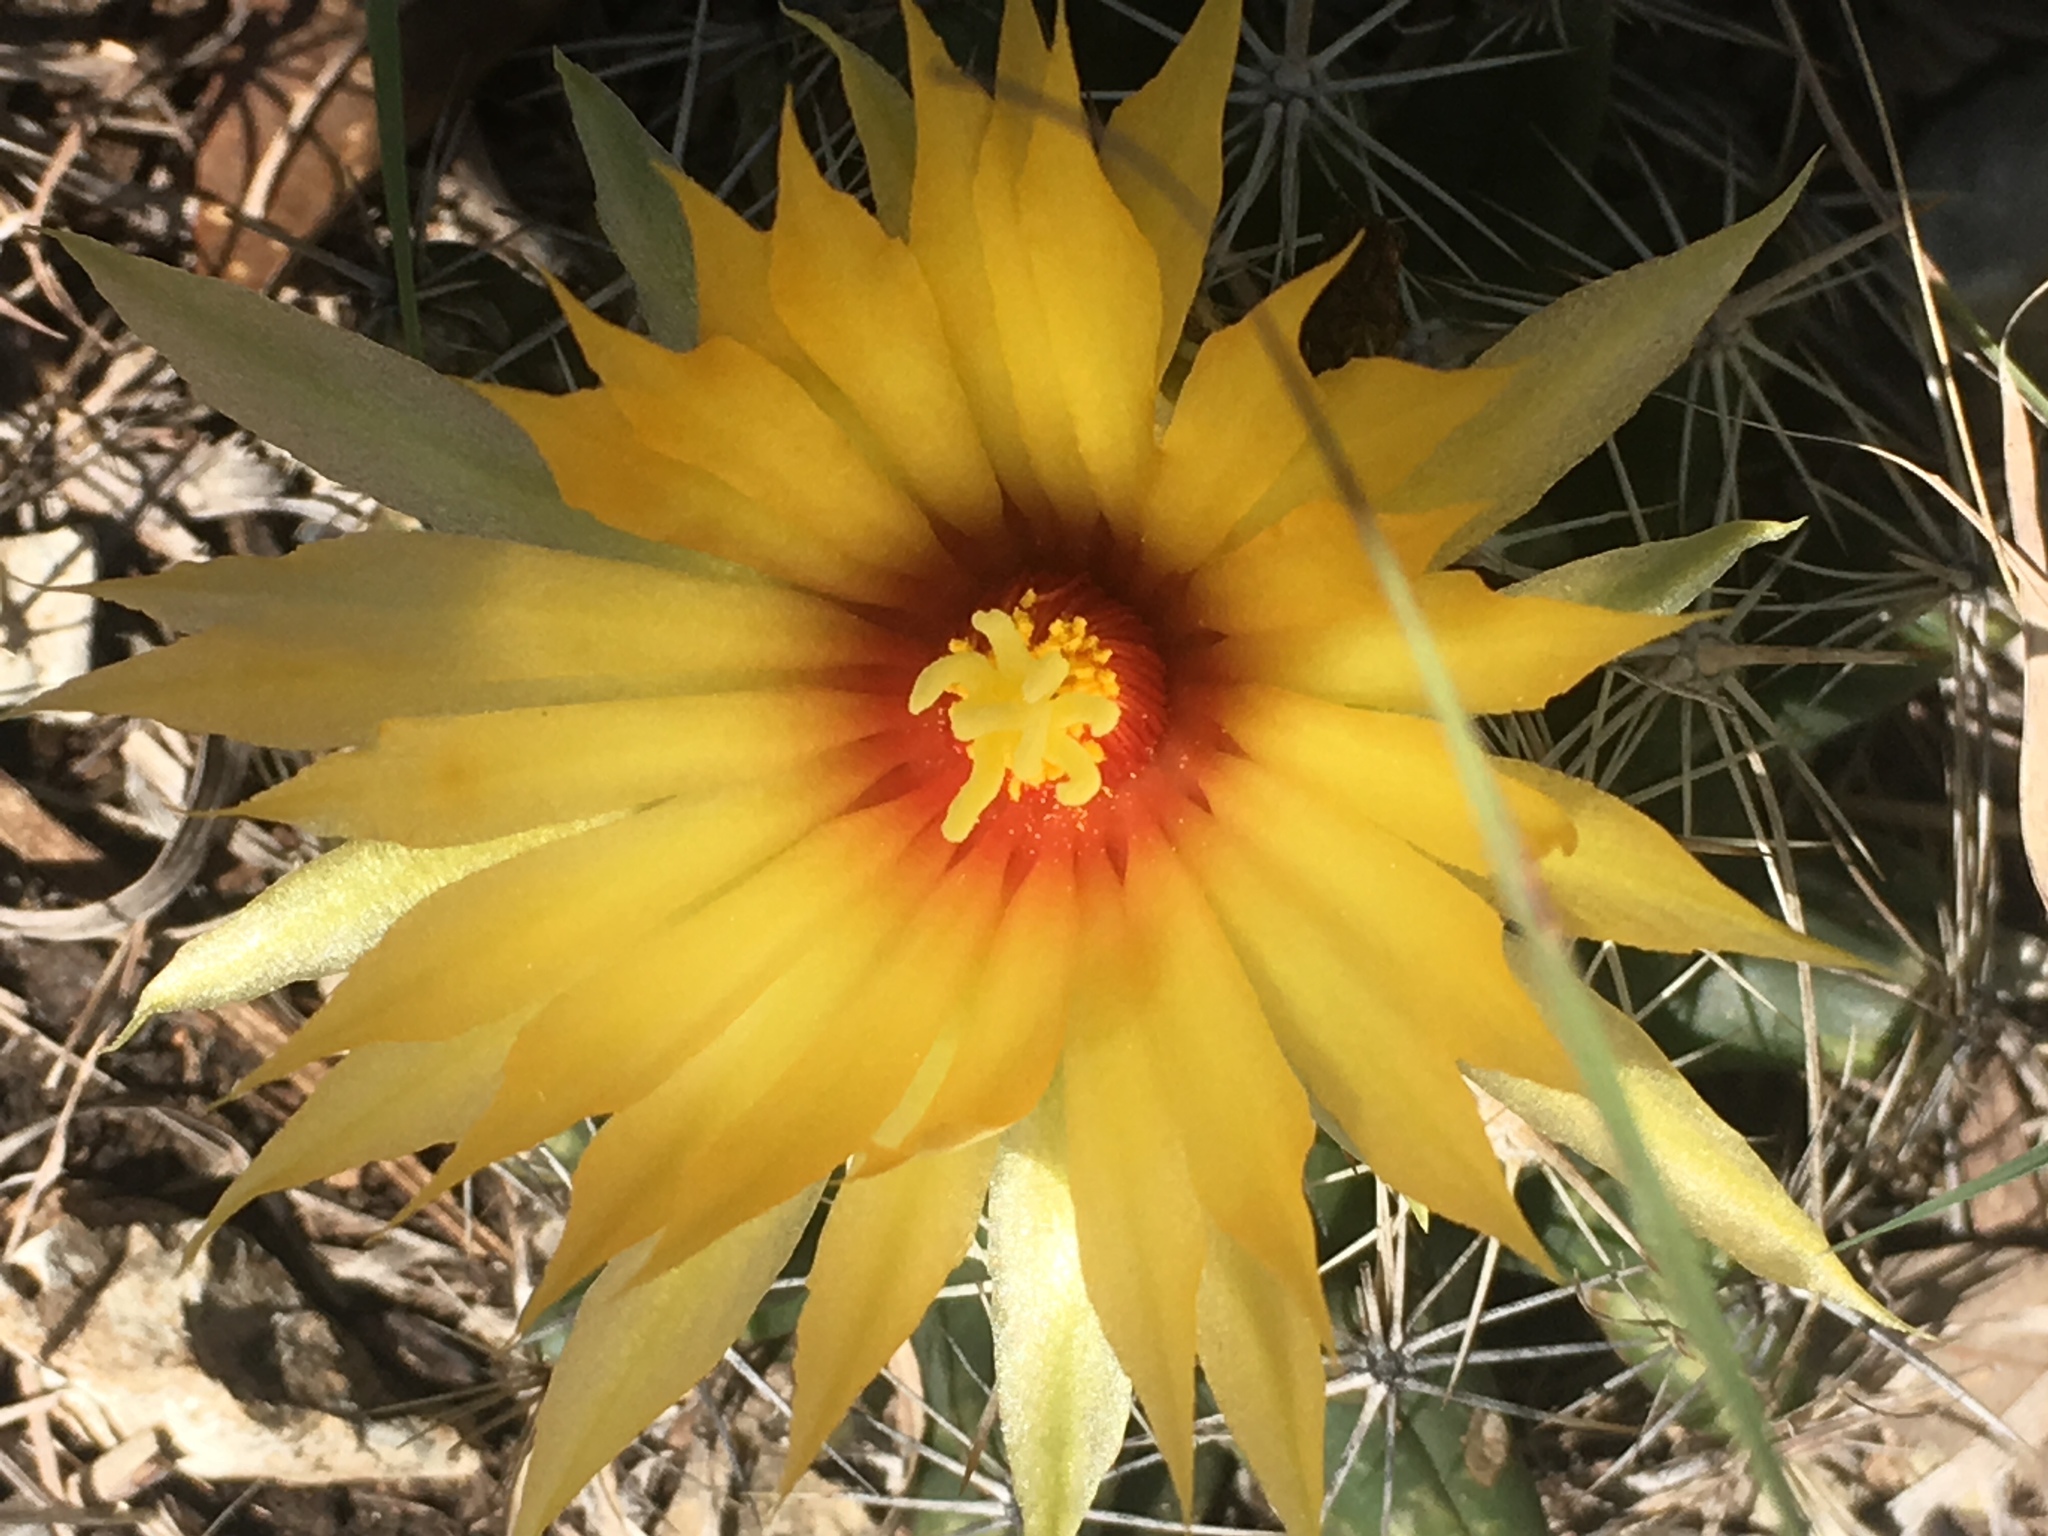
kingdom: Plantae
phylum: Tracheophyta
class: Magnoliopsida
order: Caryophyllales
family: Cactaceae
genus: Coryphantha
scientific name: Coryphantha sulcata
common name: Finger cactus
